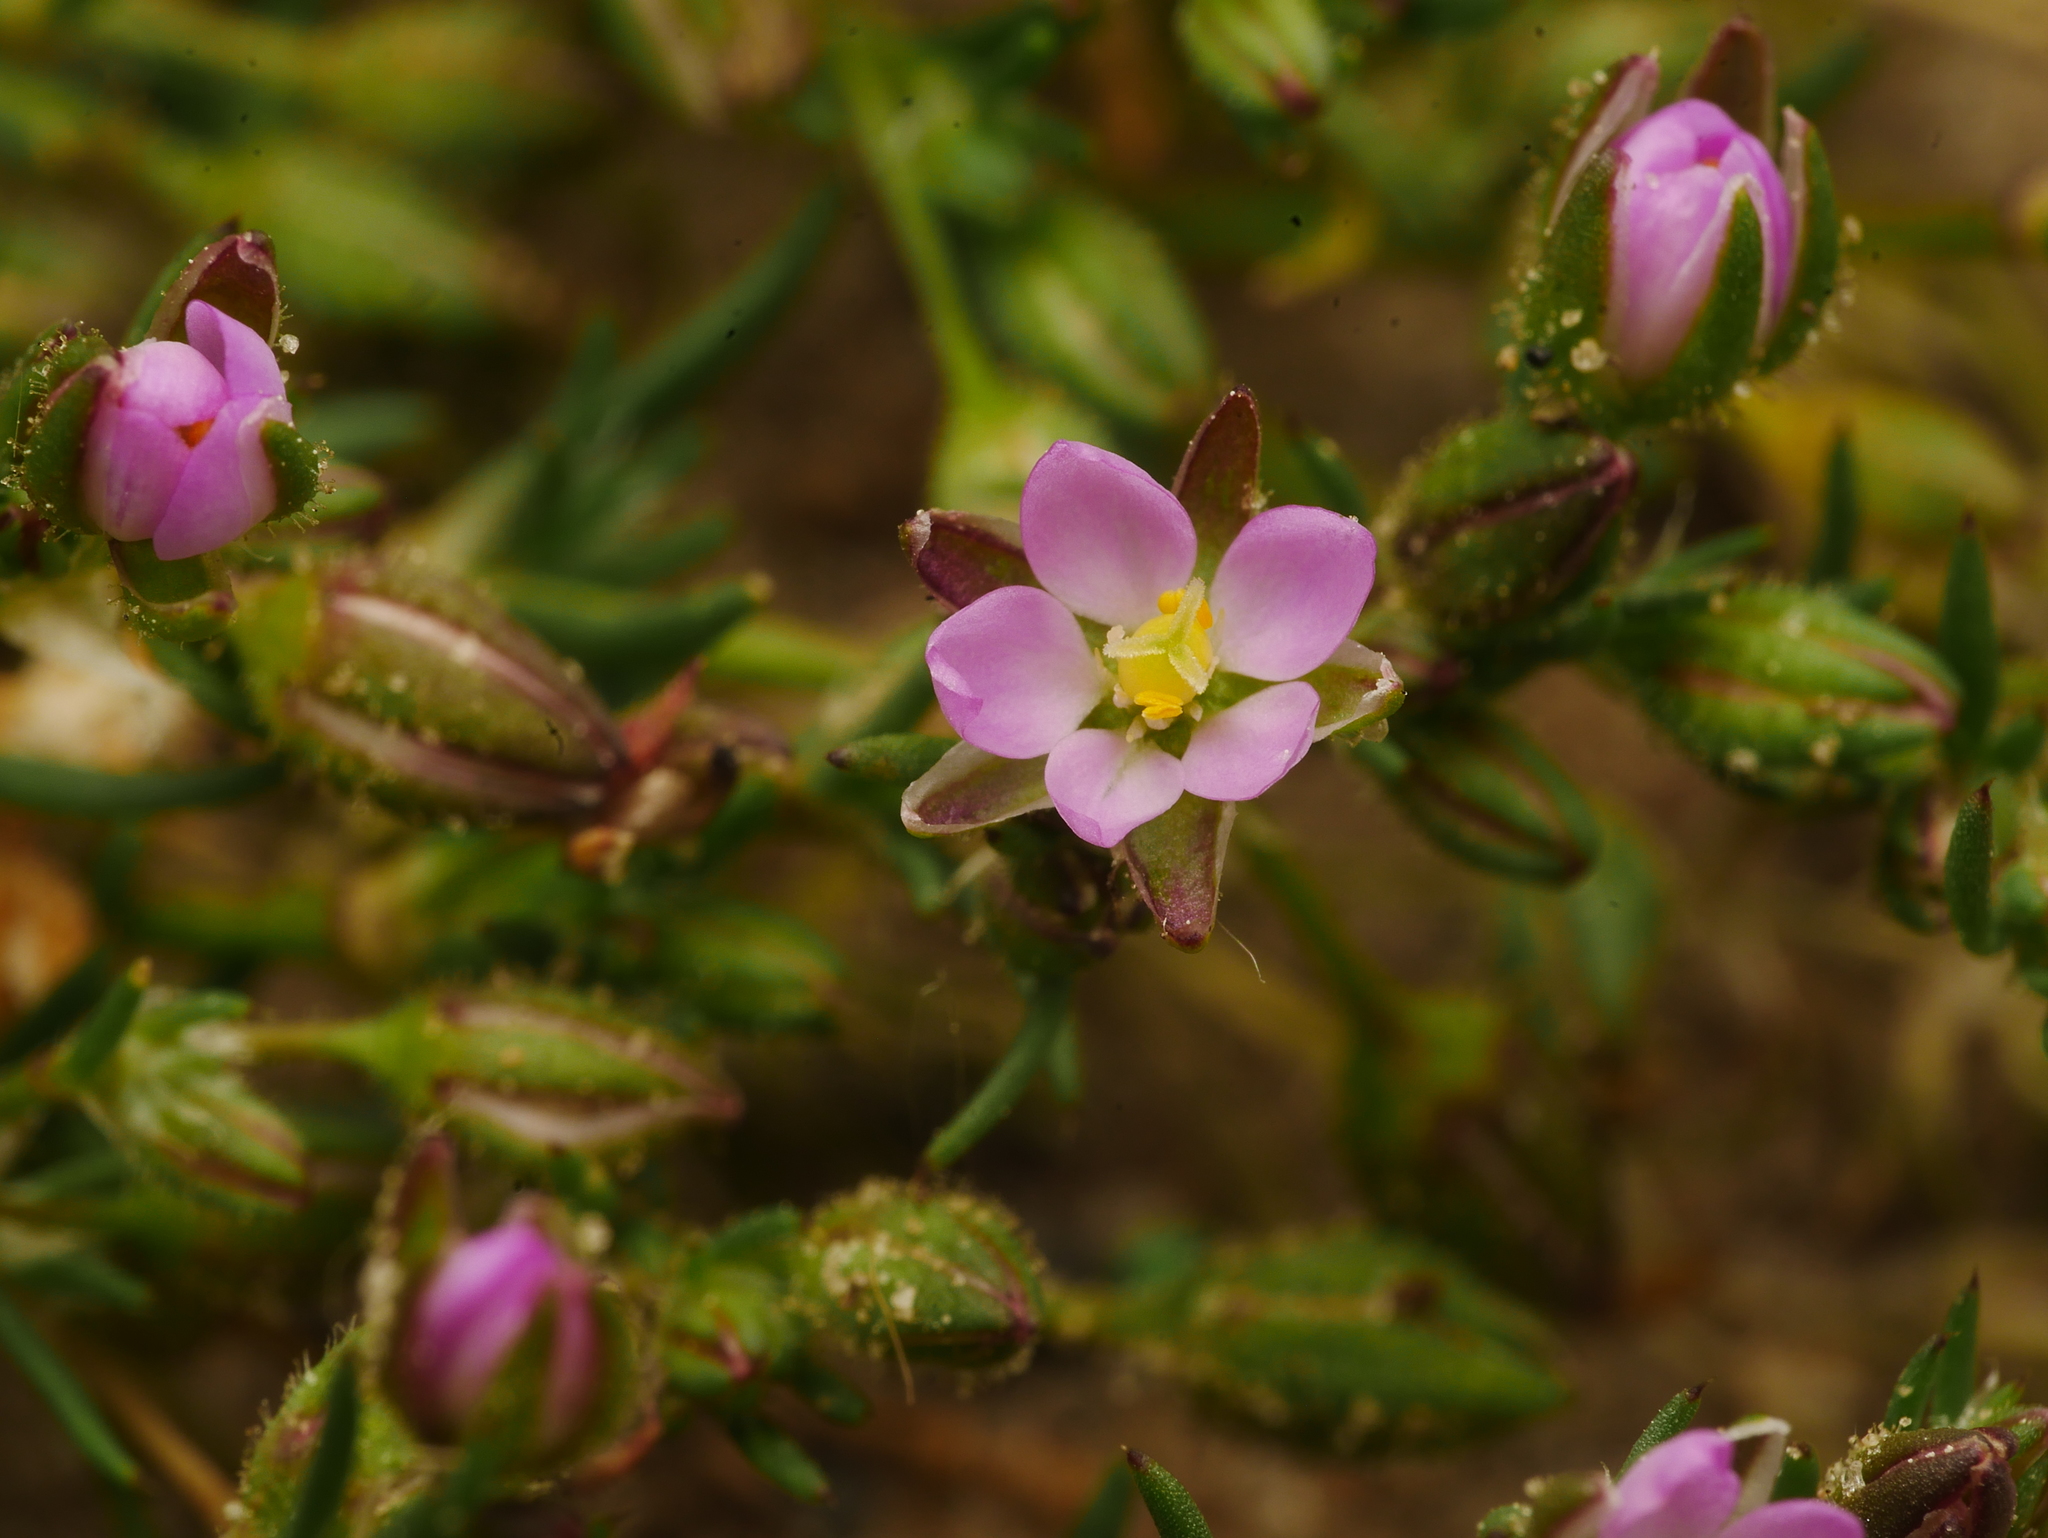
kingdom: Plantae
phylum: Tracheophyta
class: Magnoliopsida
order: Caryophyllales
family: Caryophyllaceae
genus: Spergularia
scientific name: Spergularia rubra
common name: Red sand-spurrey
